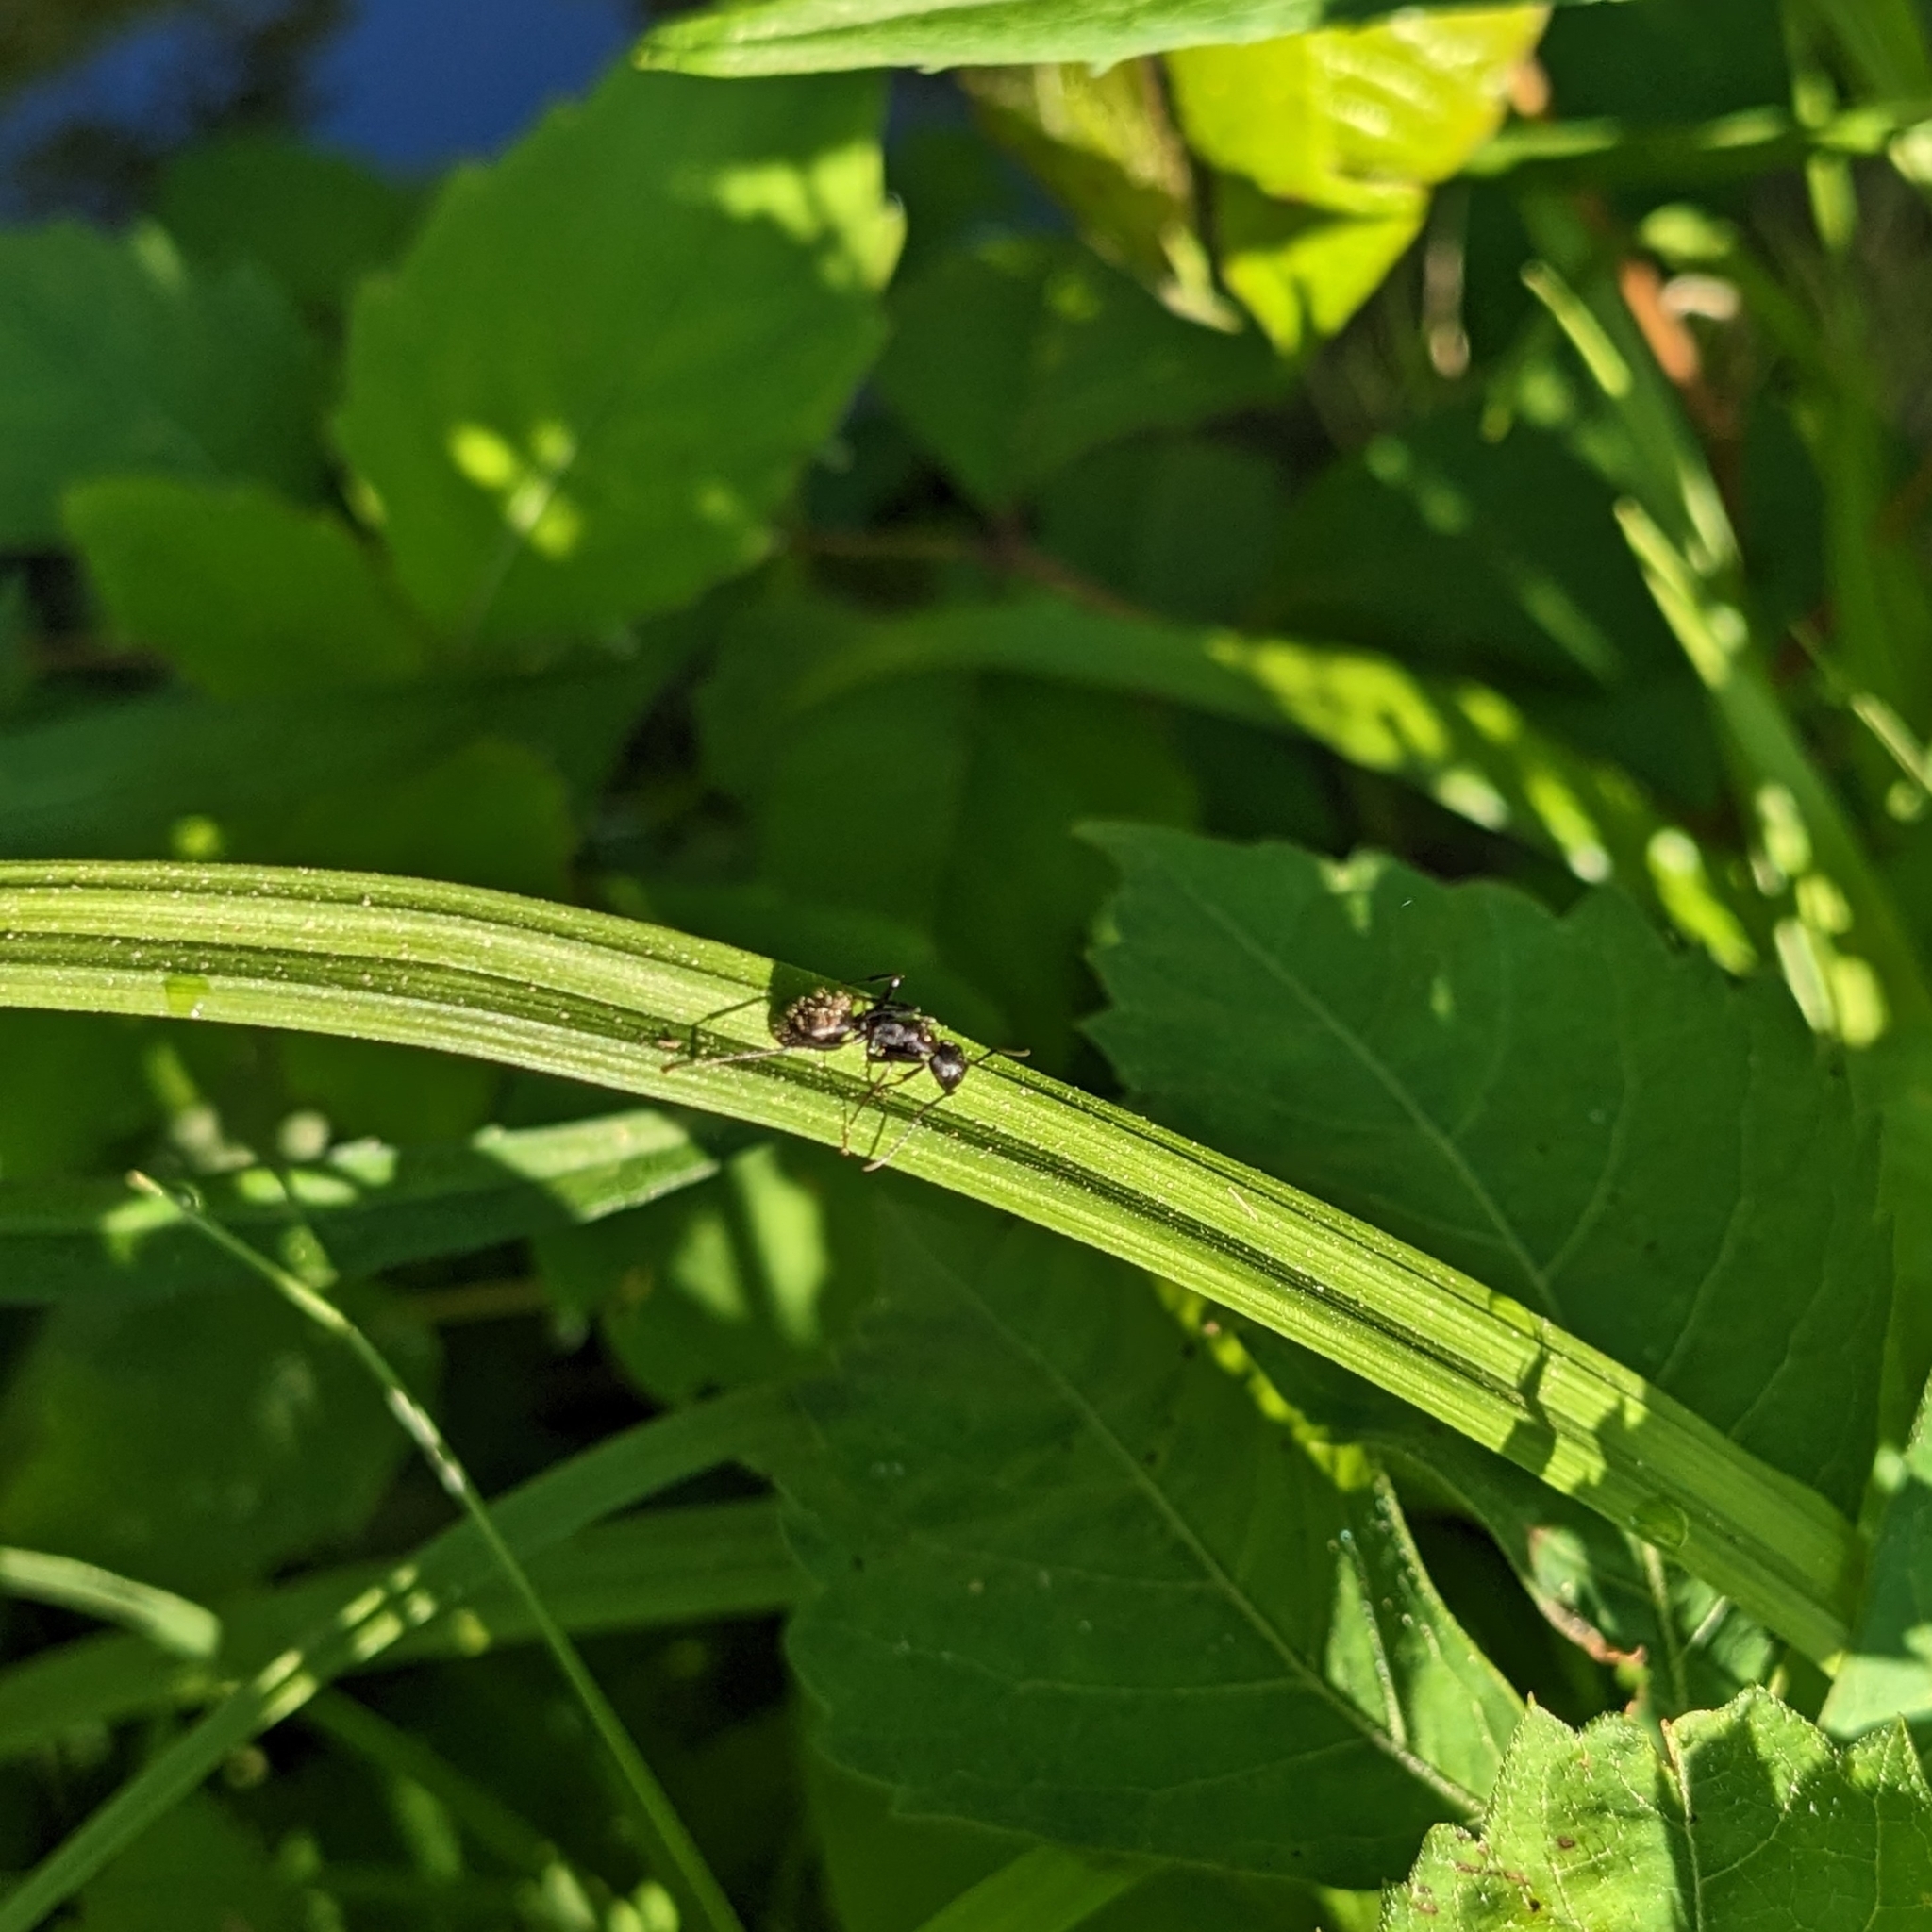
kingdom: Animalia
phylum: Arthropoda
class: Insecta
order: Hymenoptera
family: Formicidae
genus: Camponotus
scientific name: Camponotus pennsylvanicus
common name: Black carpenter ant
